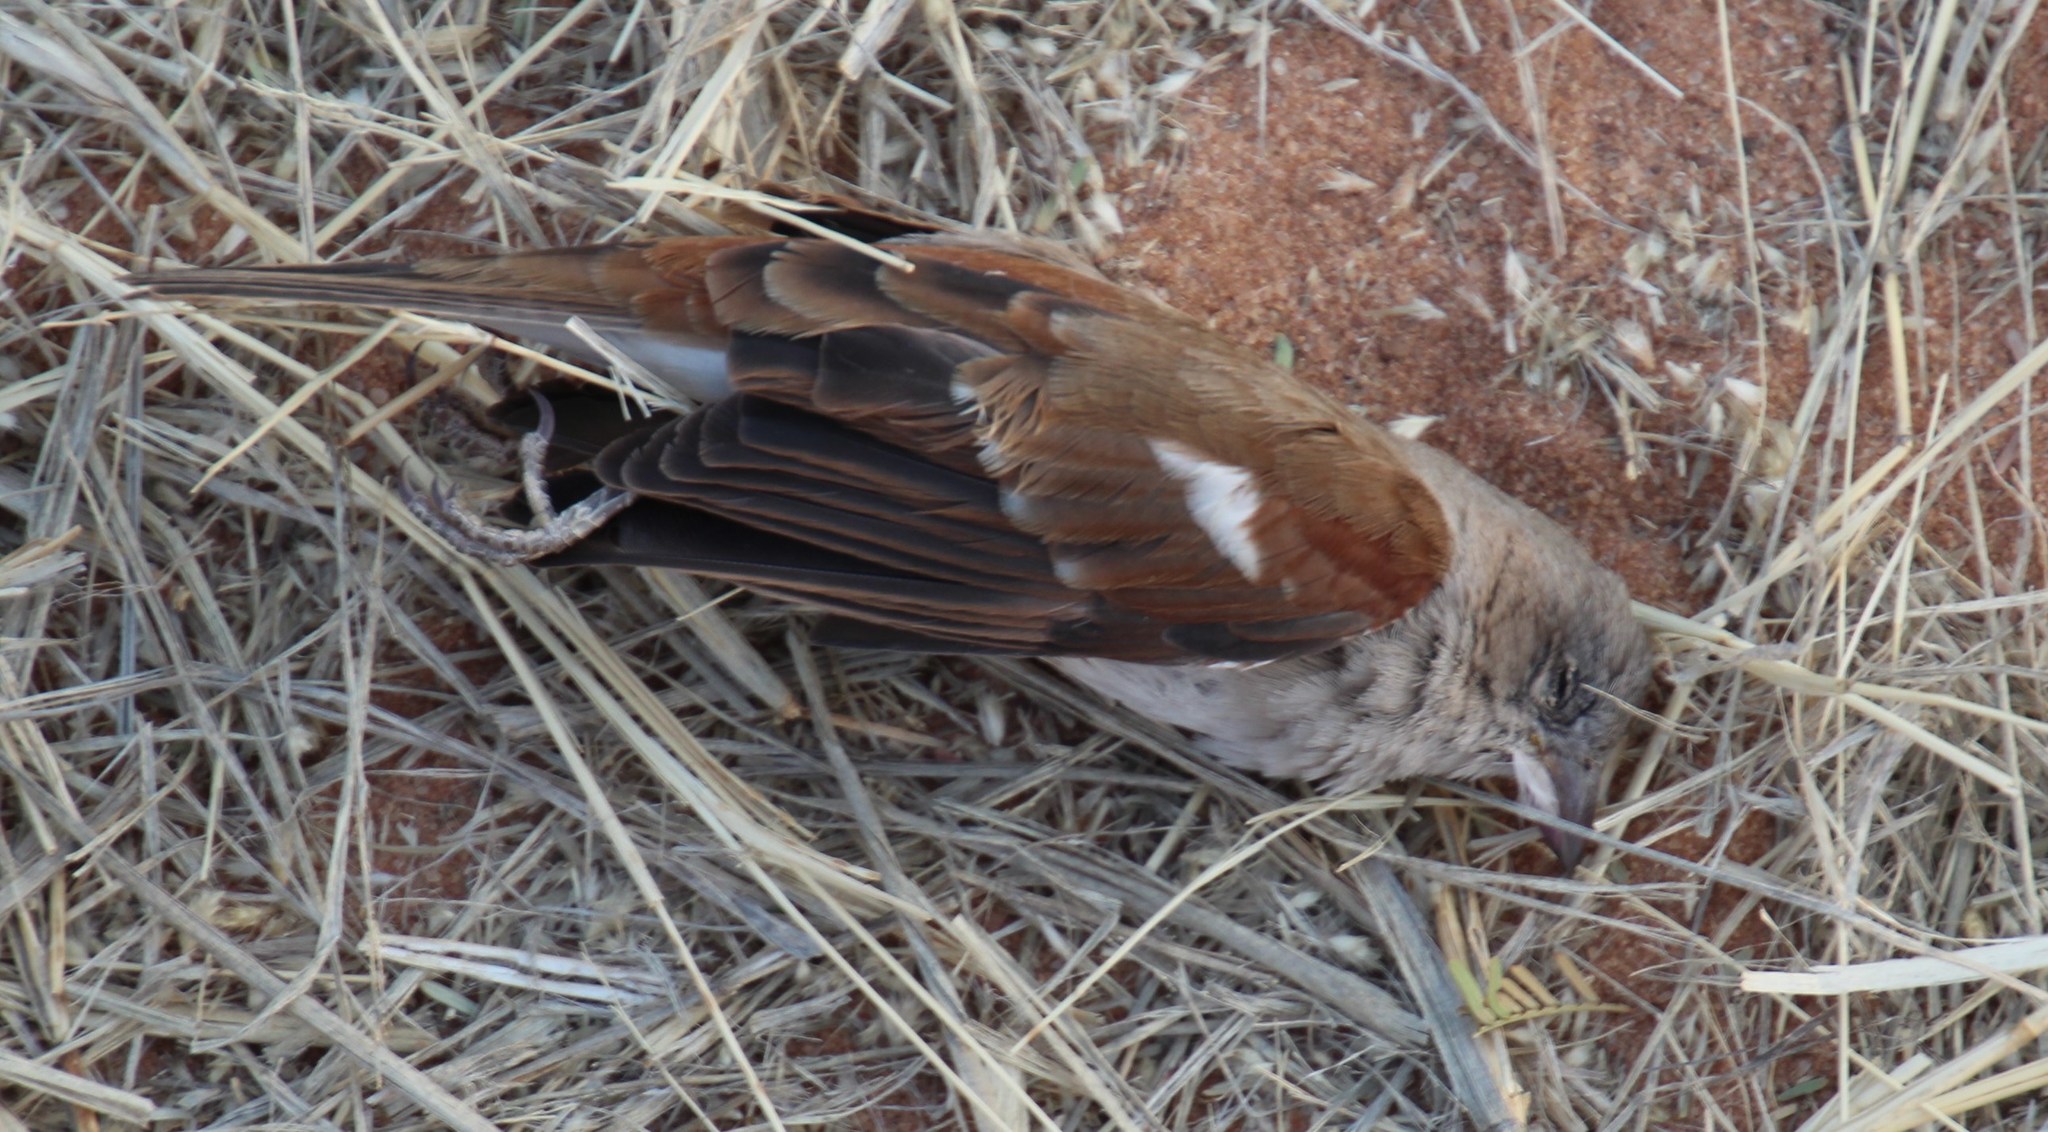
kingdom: Animalia
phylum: Chordata
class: Aves
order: Passeriformes
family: Passeridae
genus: Passer
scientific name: Passer diffusus
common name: Southern grey-headed sparrow
